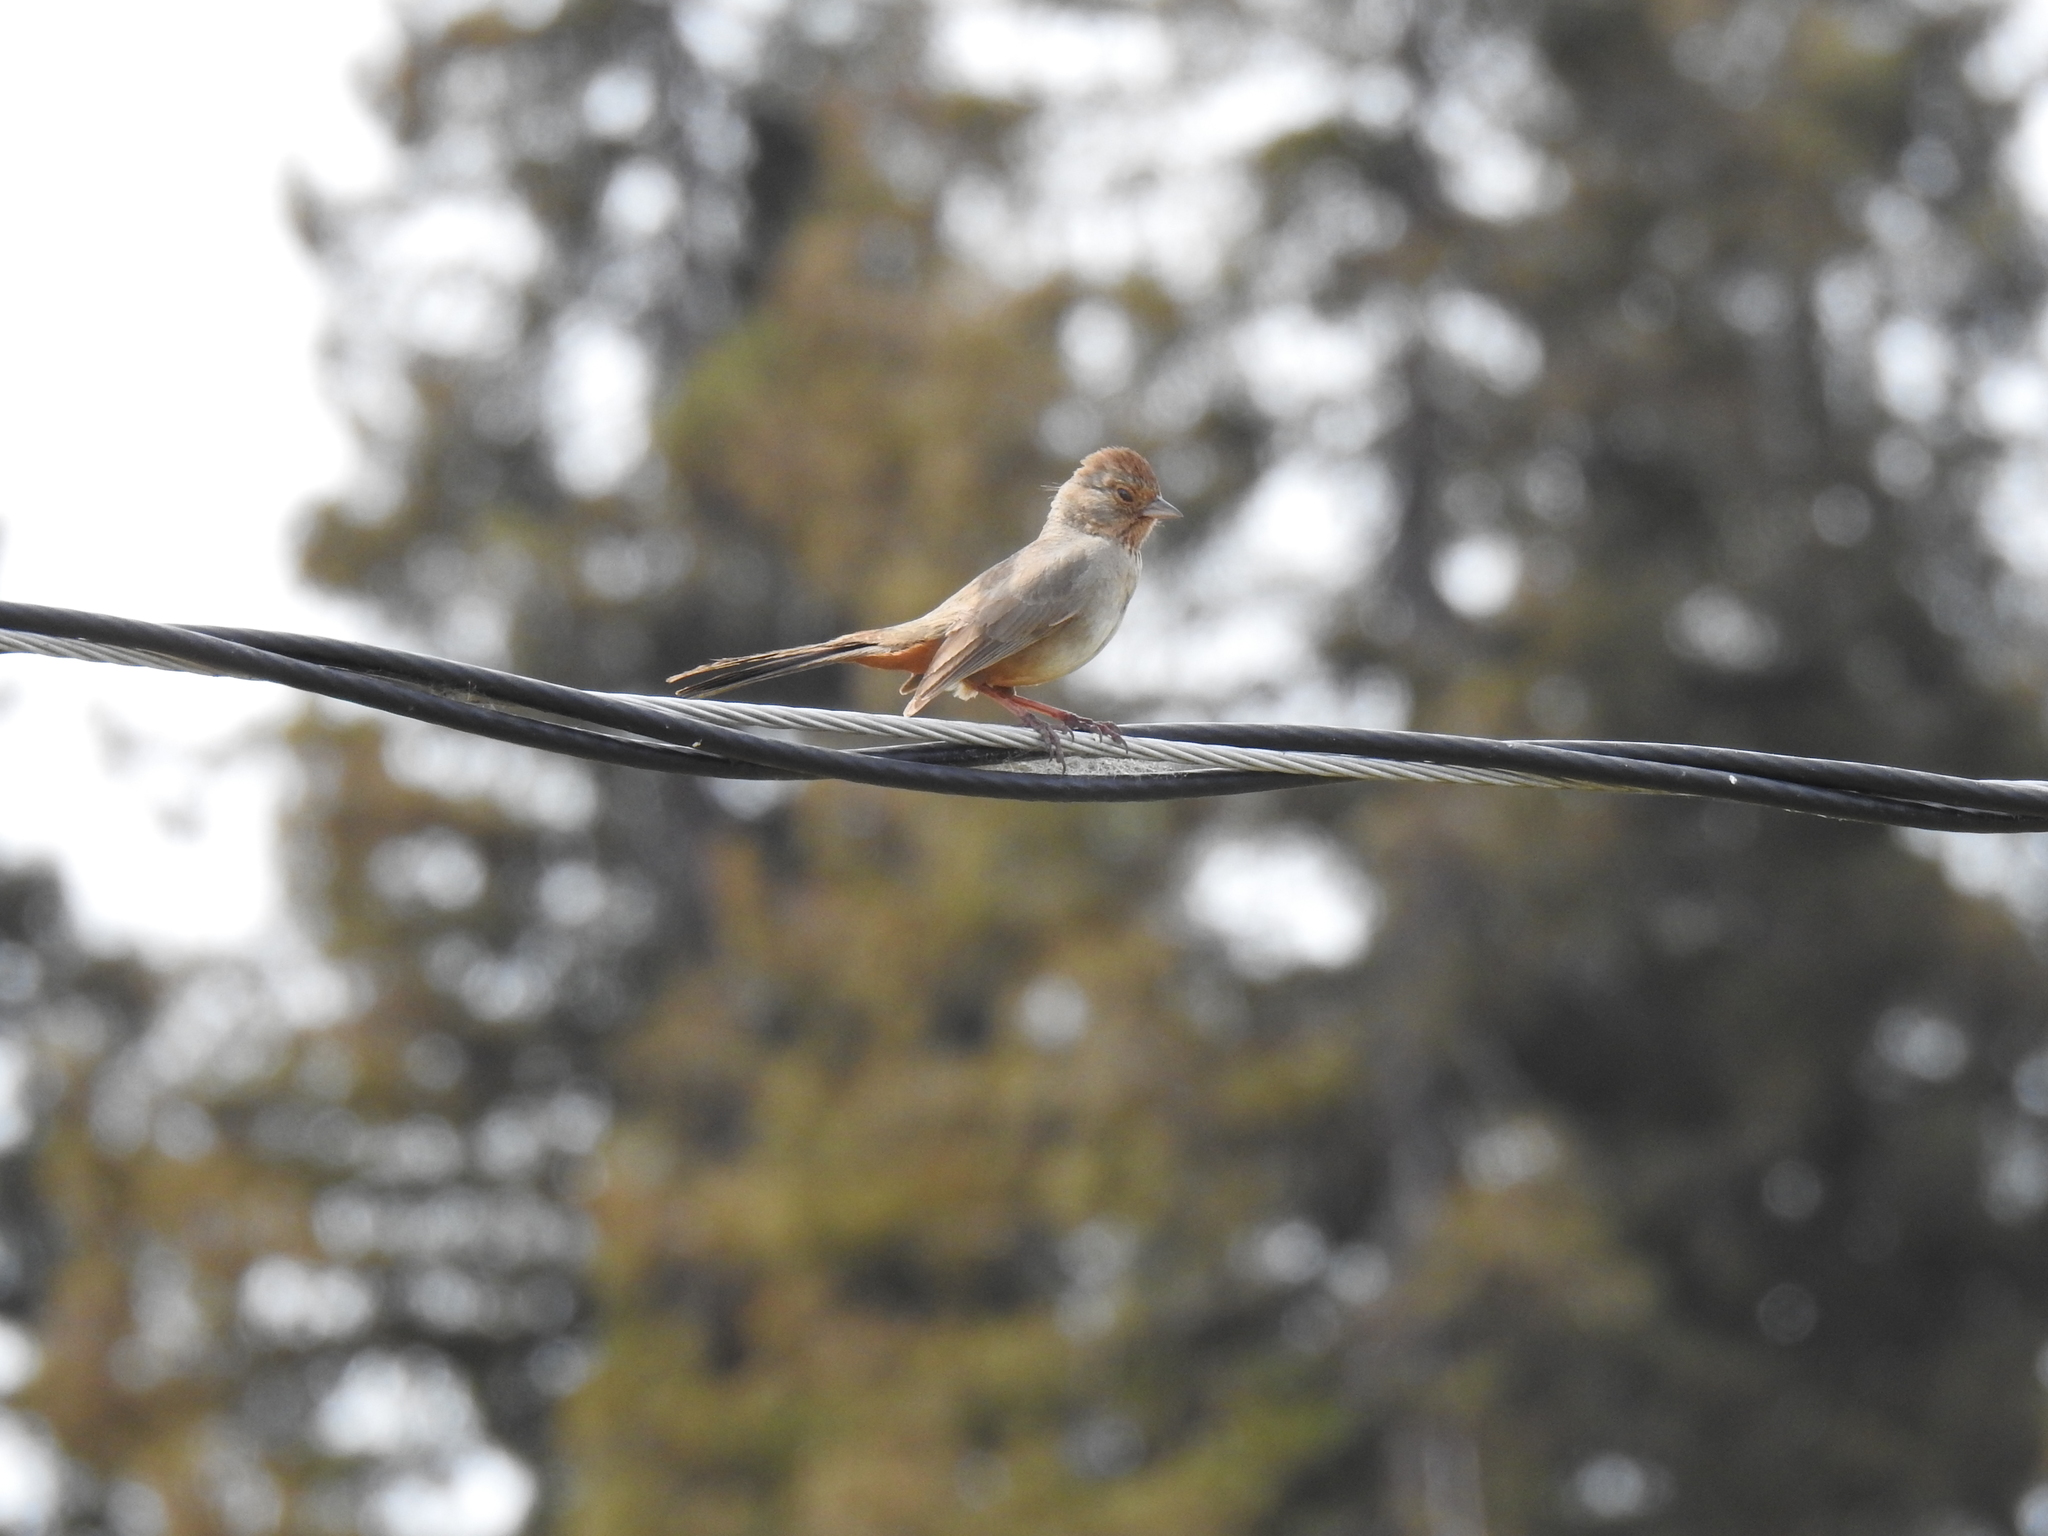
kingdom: Animalia
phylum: Chordata
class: Aves
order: Passeriformes
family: Passerellidae
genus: Melozone
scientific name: Melozone crissalis
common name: California towhee
